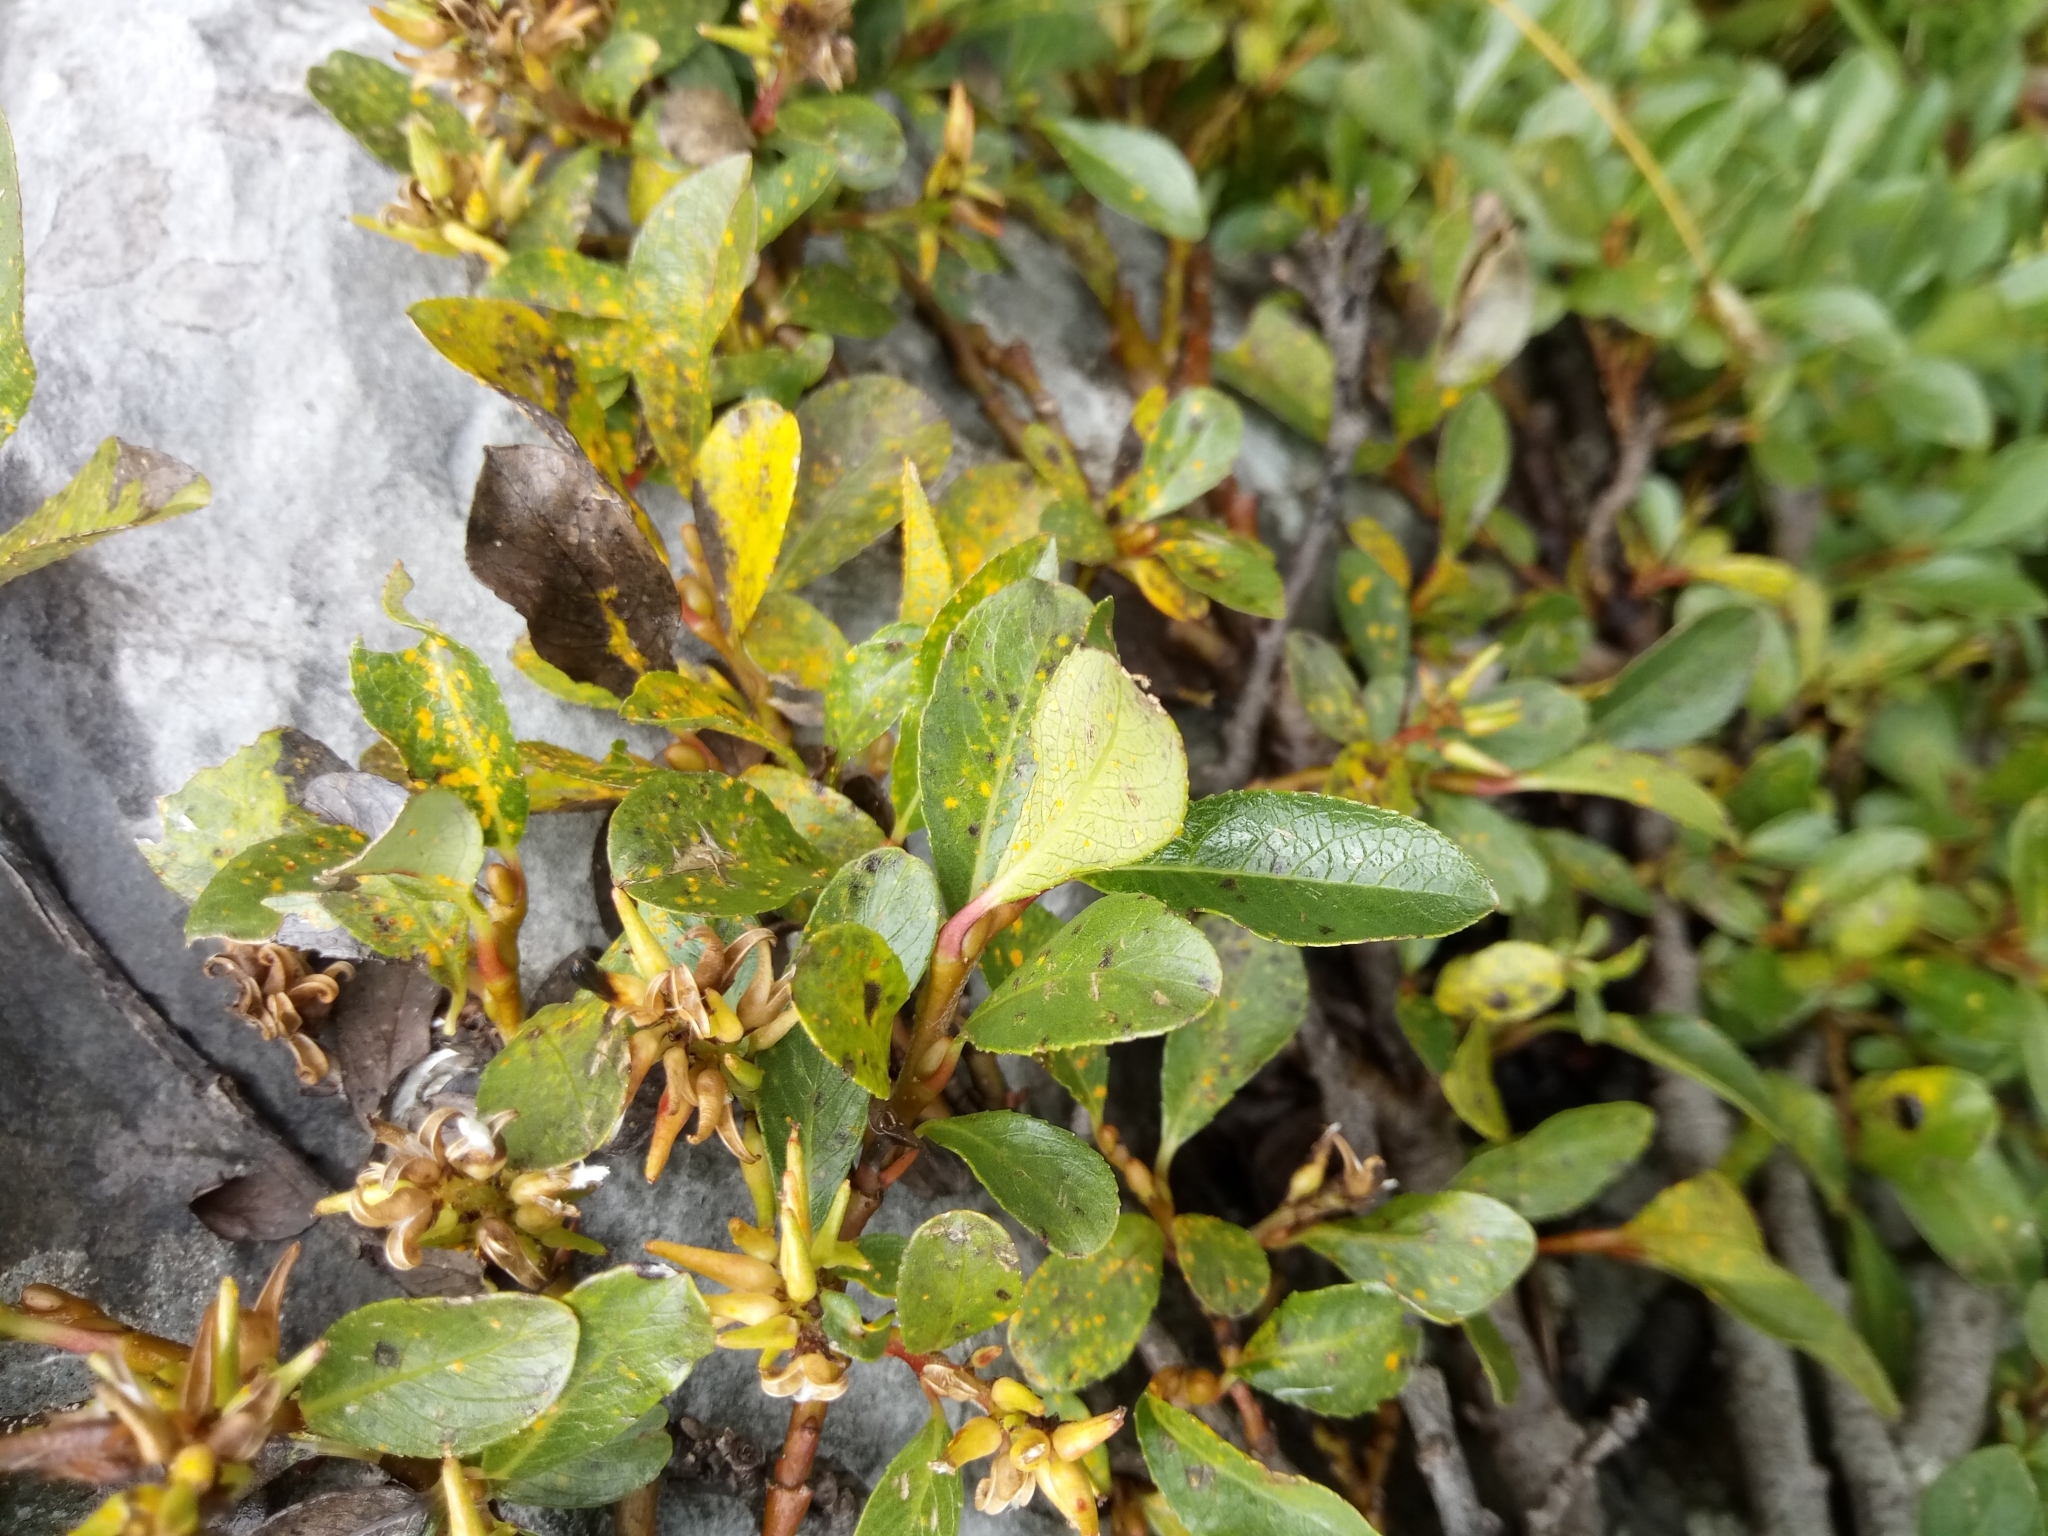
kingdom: Plantae
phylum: Tracheophyta
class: Magnoliopsida
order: Malpighiales
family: Salicaceae
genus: Salix
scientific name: Salix retusa
